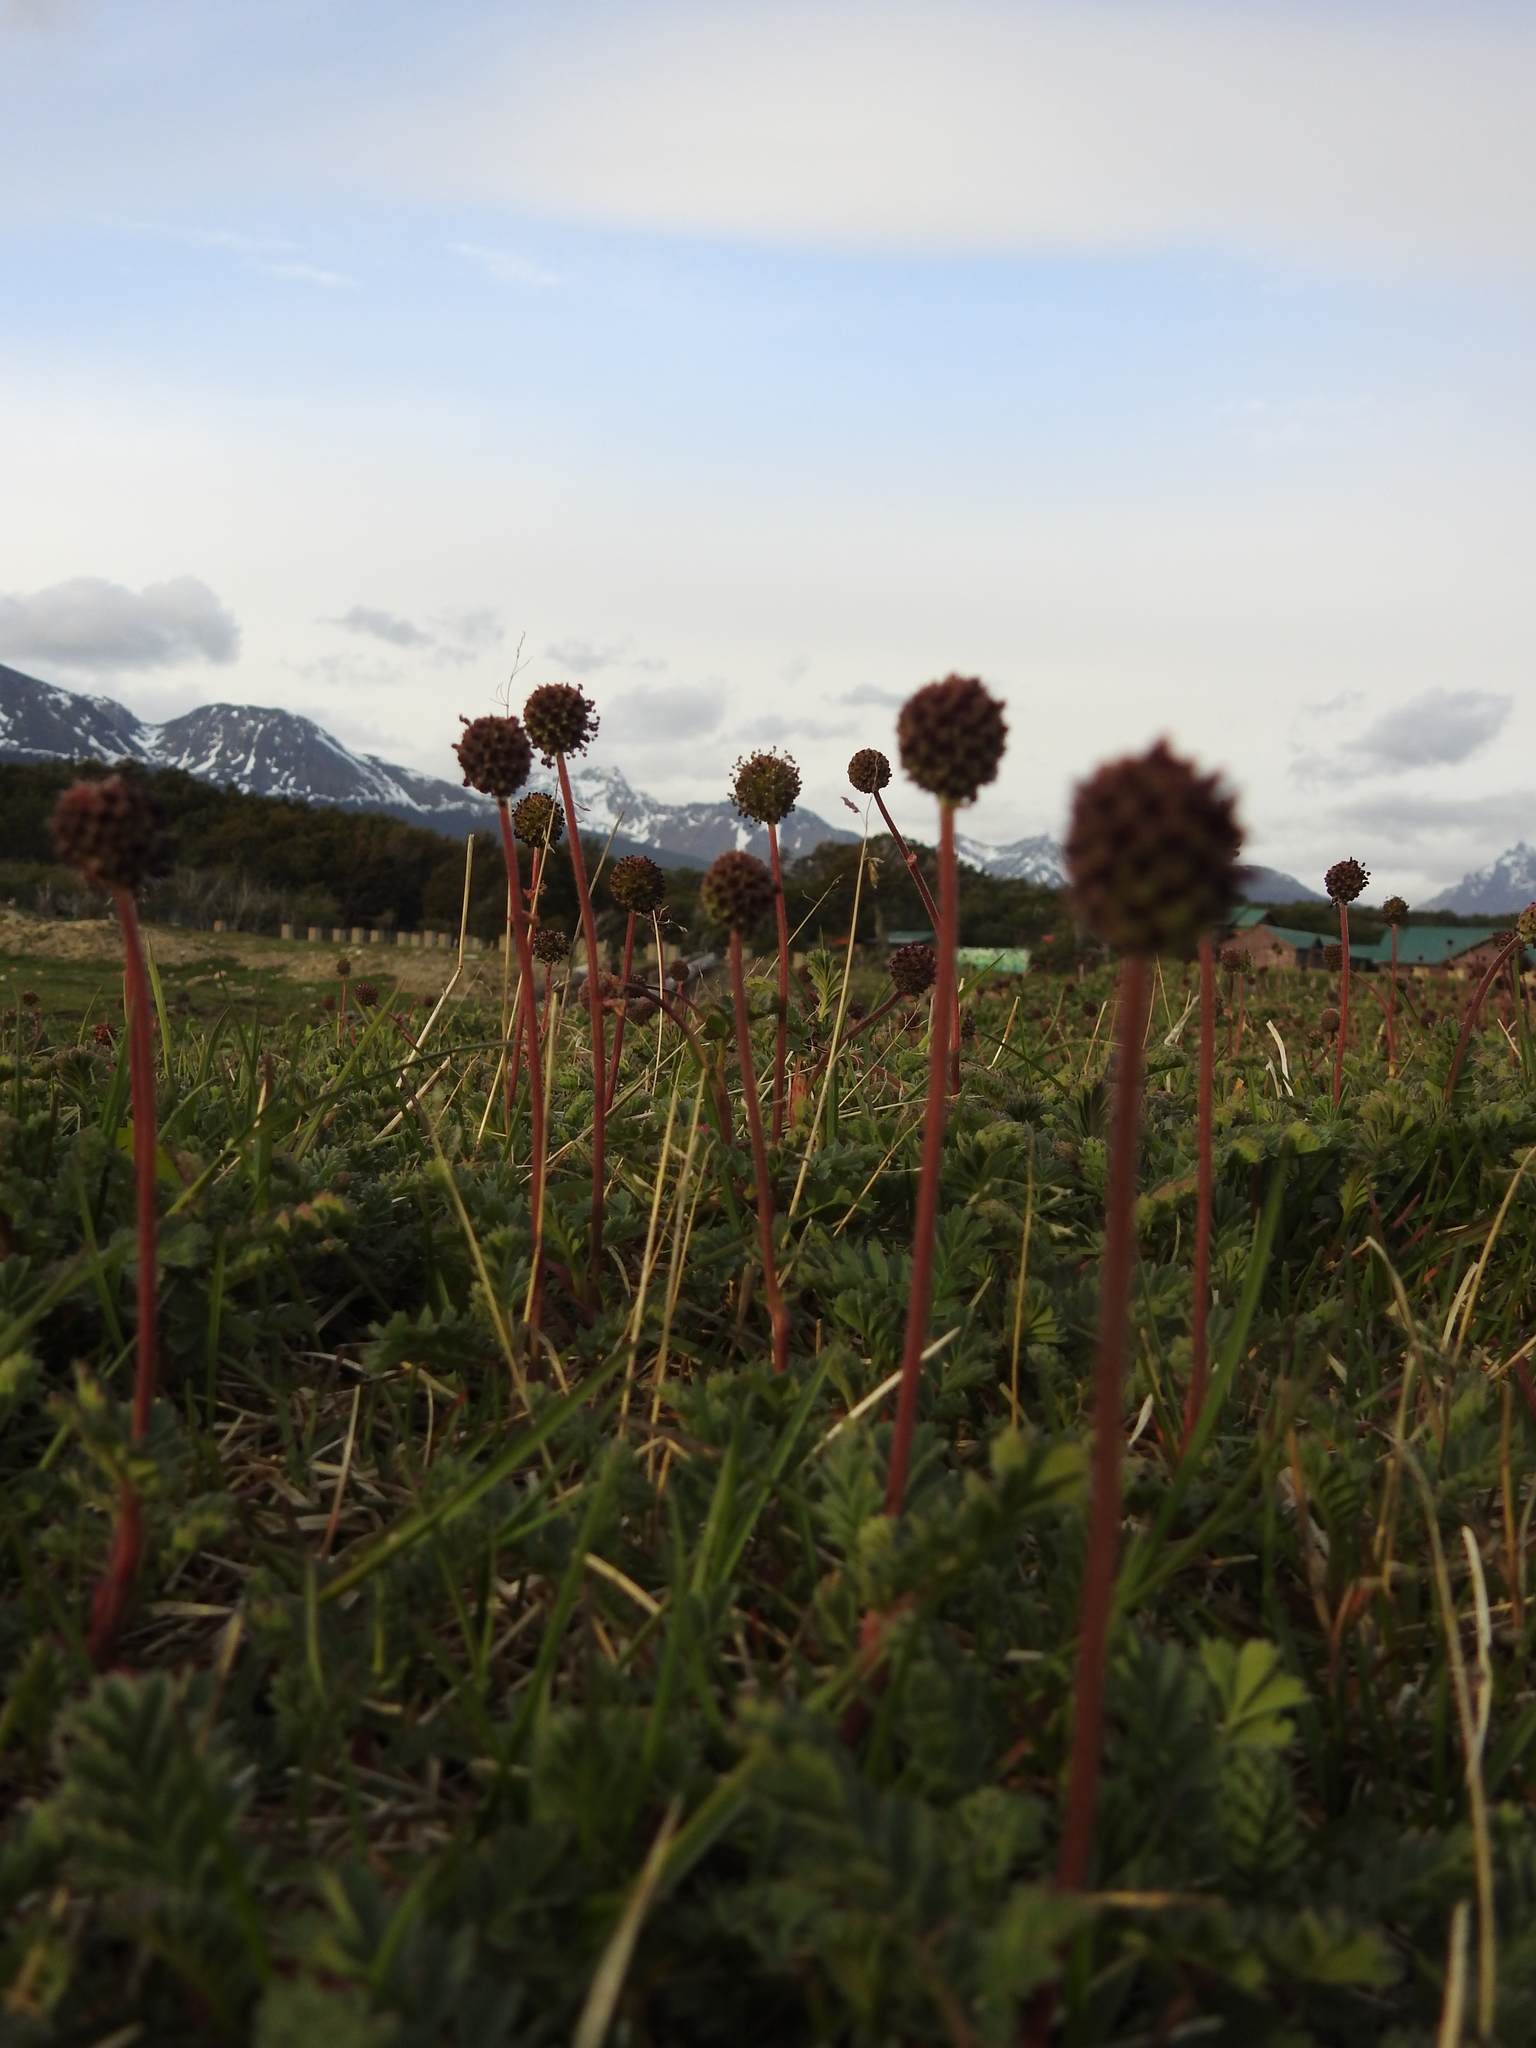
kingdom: Plantae
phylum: Tracheophyta
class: Magnoliopsida
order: Rosales
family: Rosaceae
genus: Acaena
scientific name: Acaena magellanica
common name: New zealand burr
